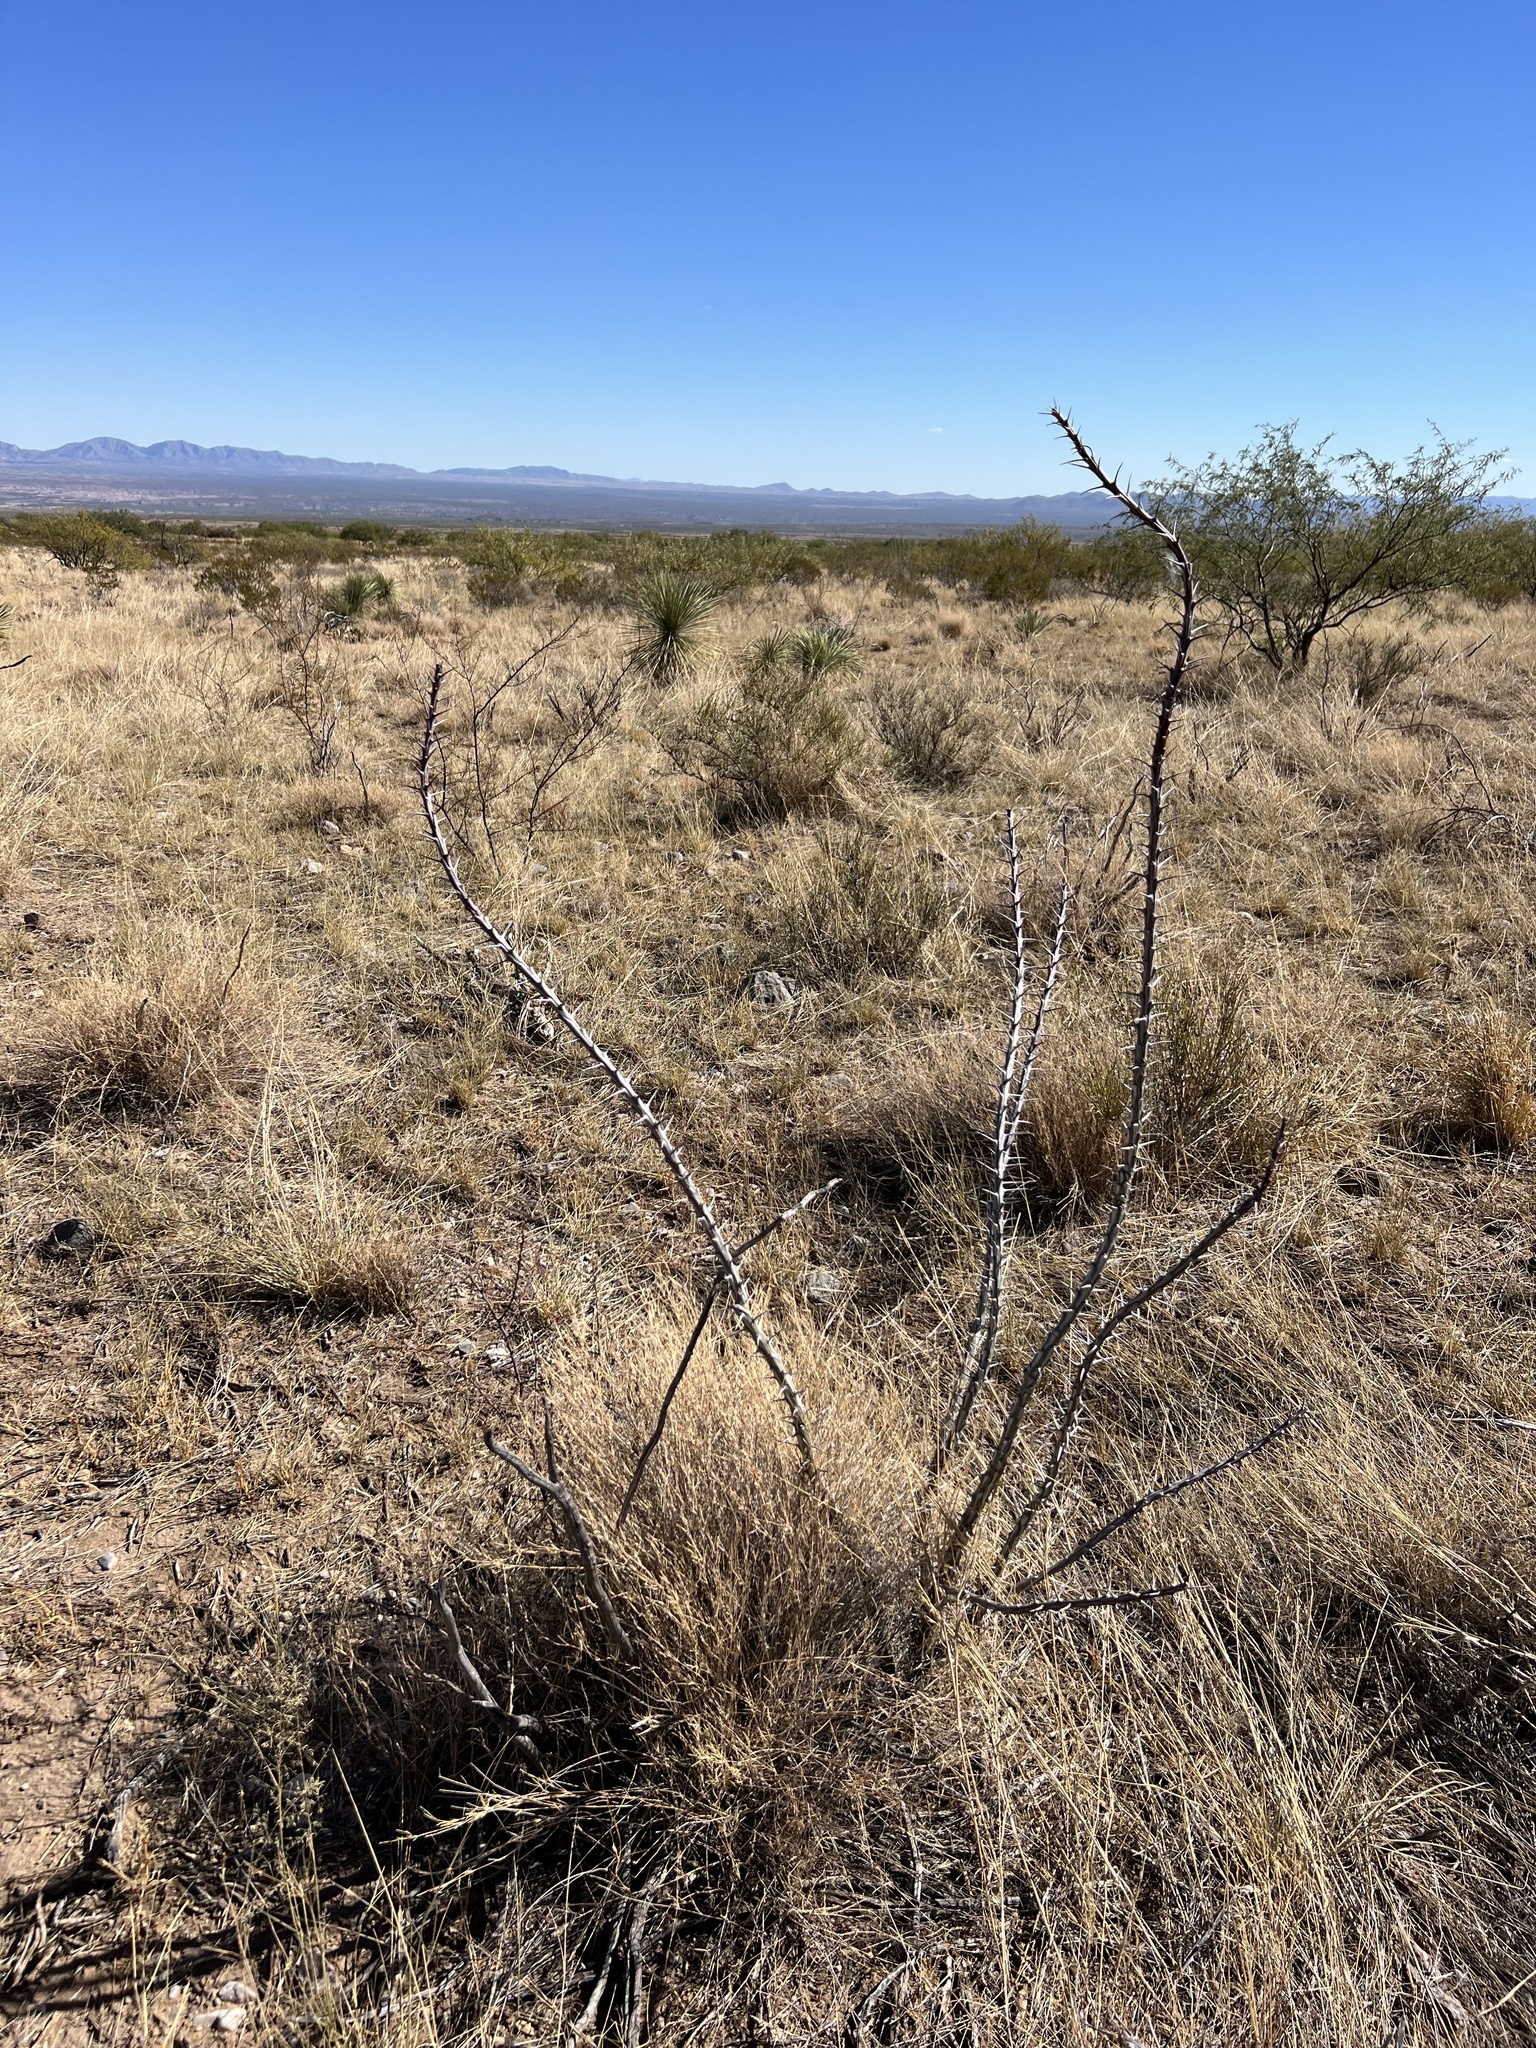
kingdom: Plantae
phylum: Tracheophyta
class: Magnoliopsida
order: Ericales
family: Fouquieriaceae
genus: Fouquieria
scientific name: Fouquieria splendens
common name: Vine-cactus
